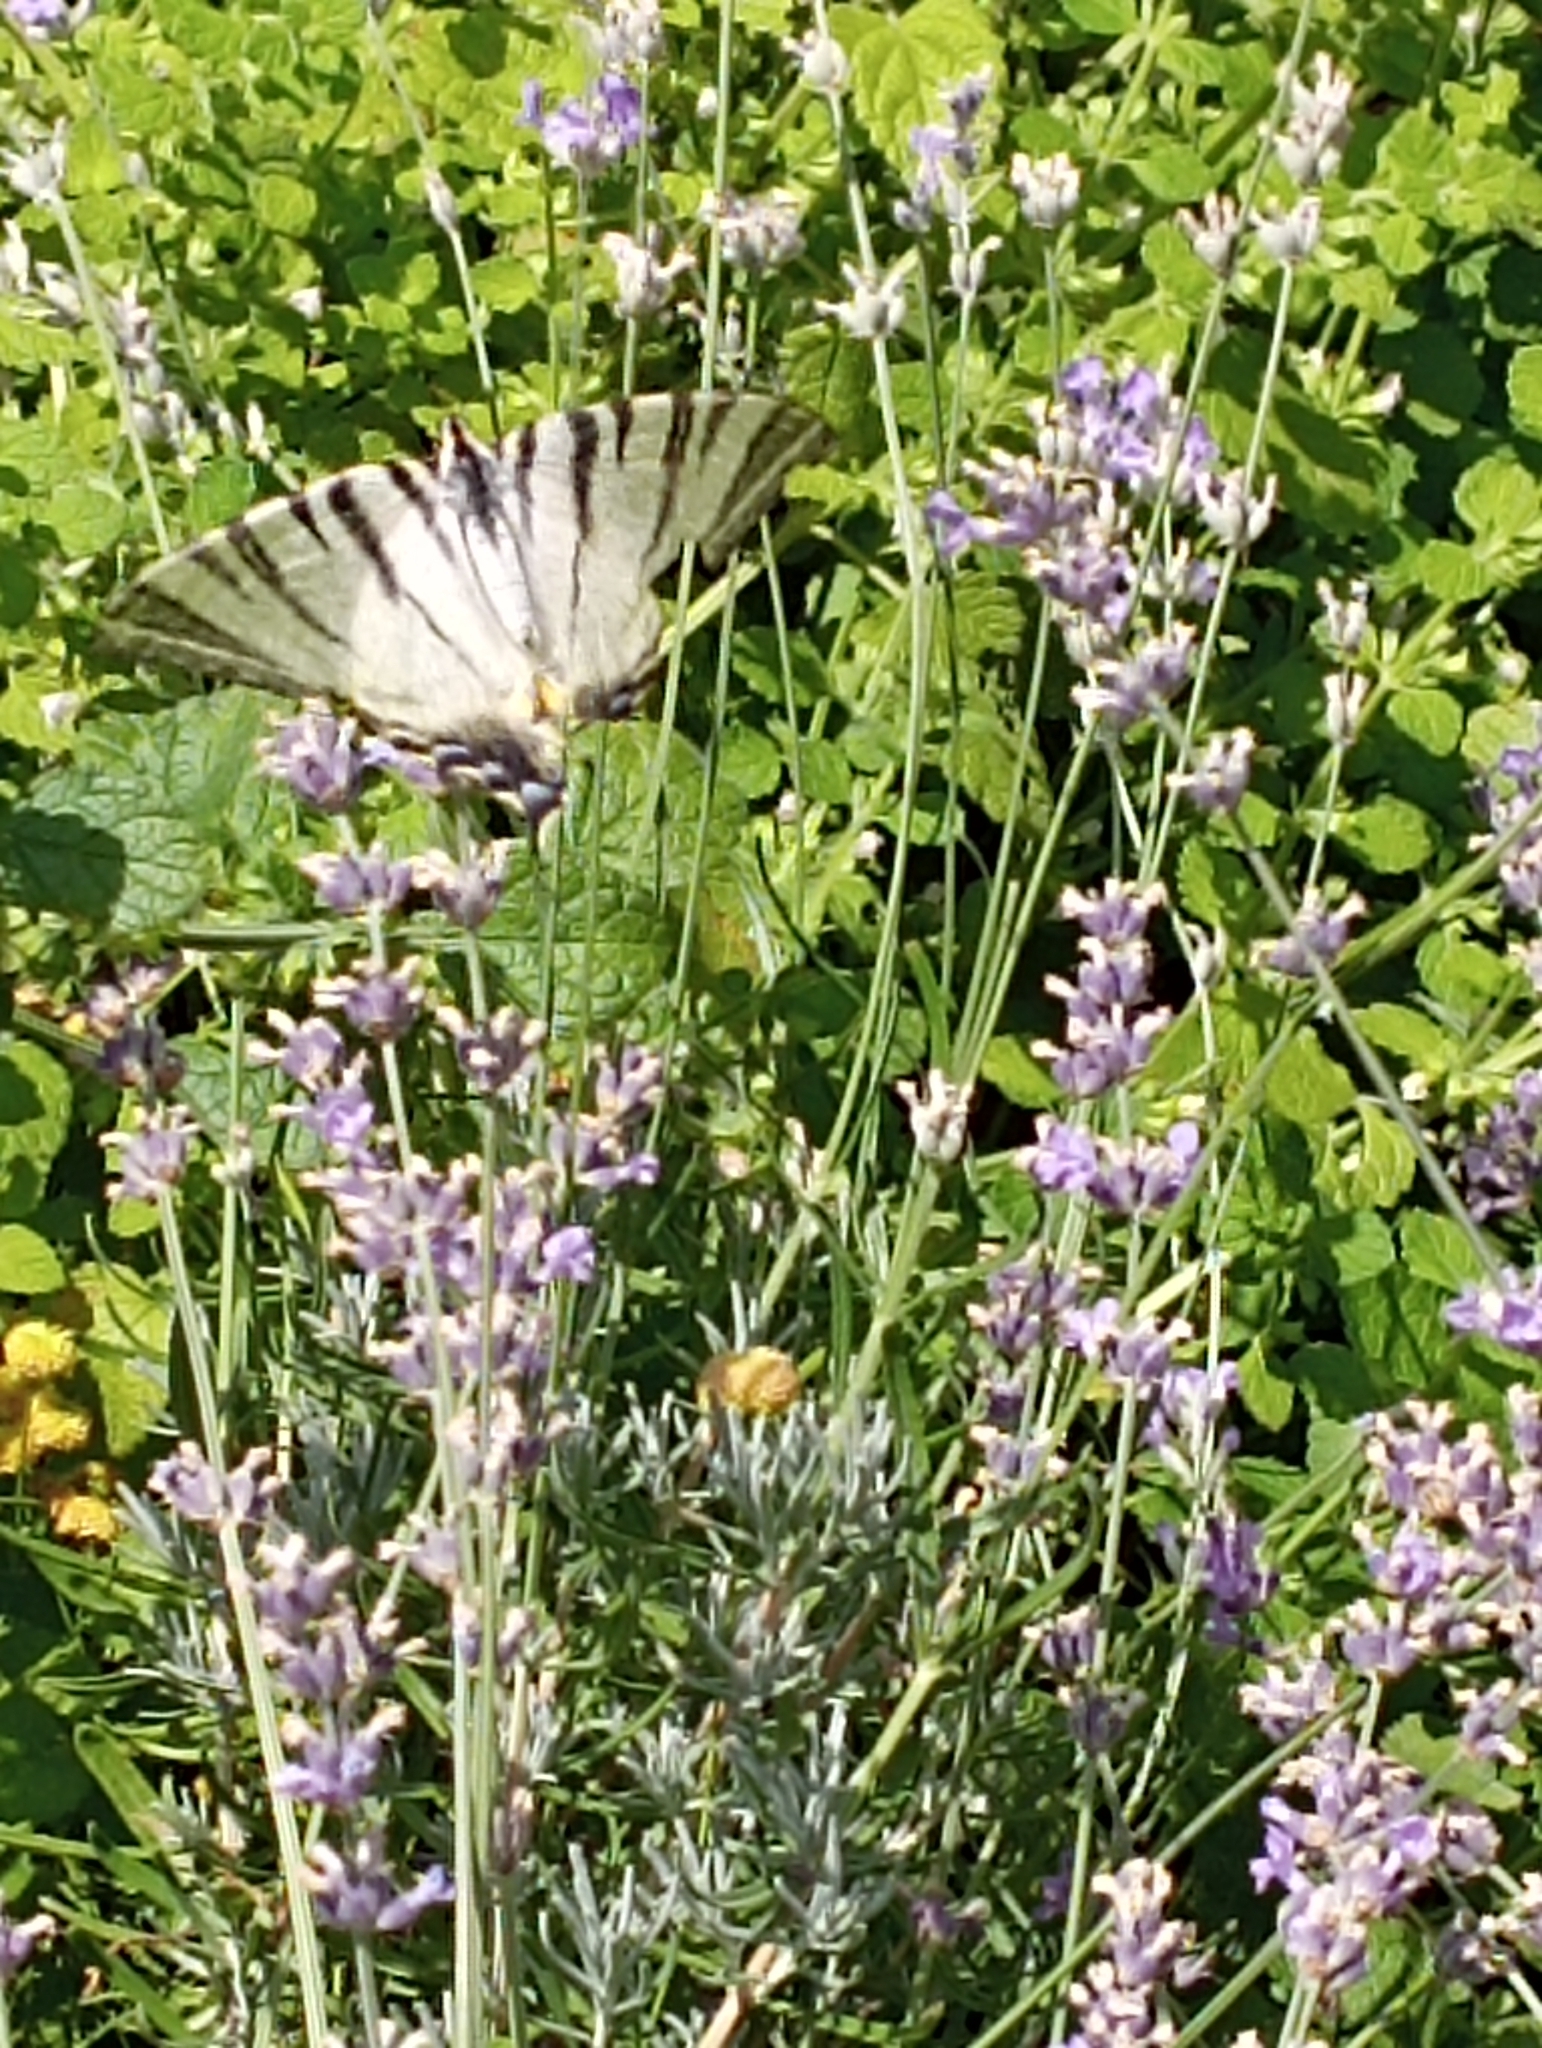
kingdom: Animalia
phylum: Arthropoda
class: Insecta
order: Lepidoptera
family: Papilionidae
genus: Iphiclides
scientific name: Iphiclides podalirius
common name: Scarce swallowtail
